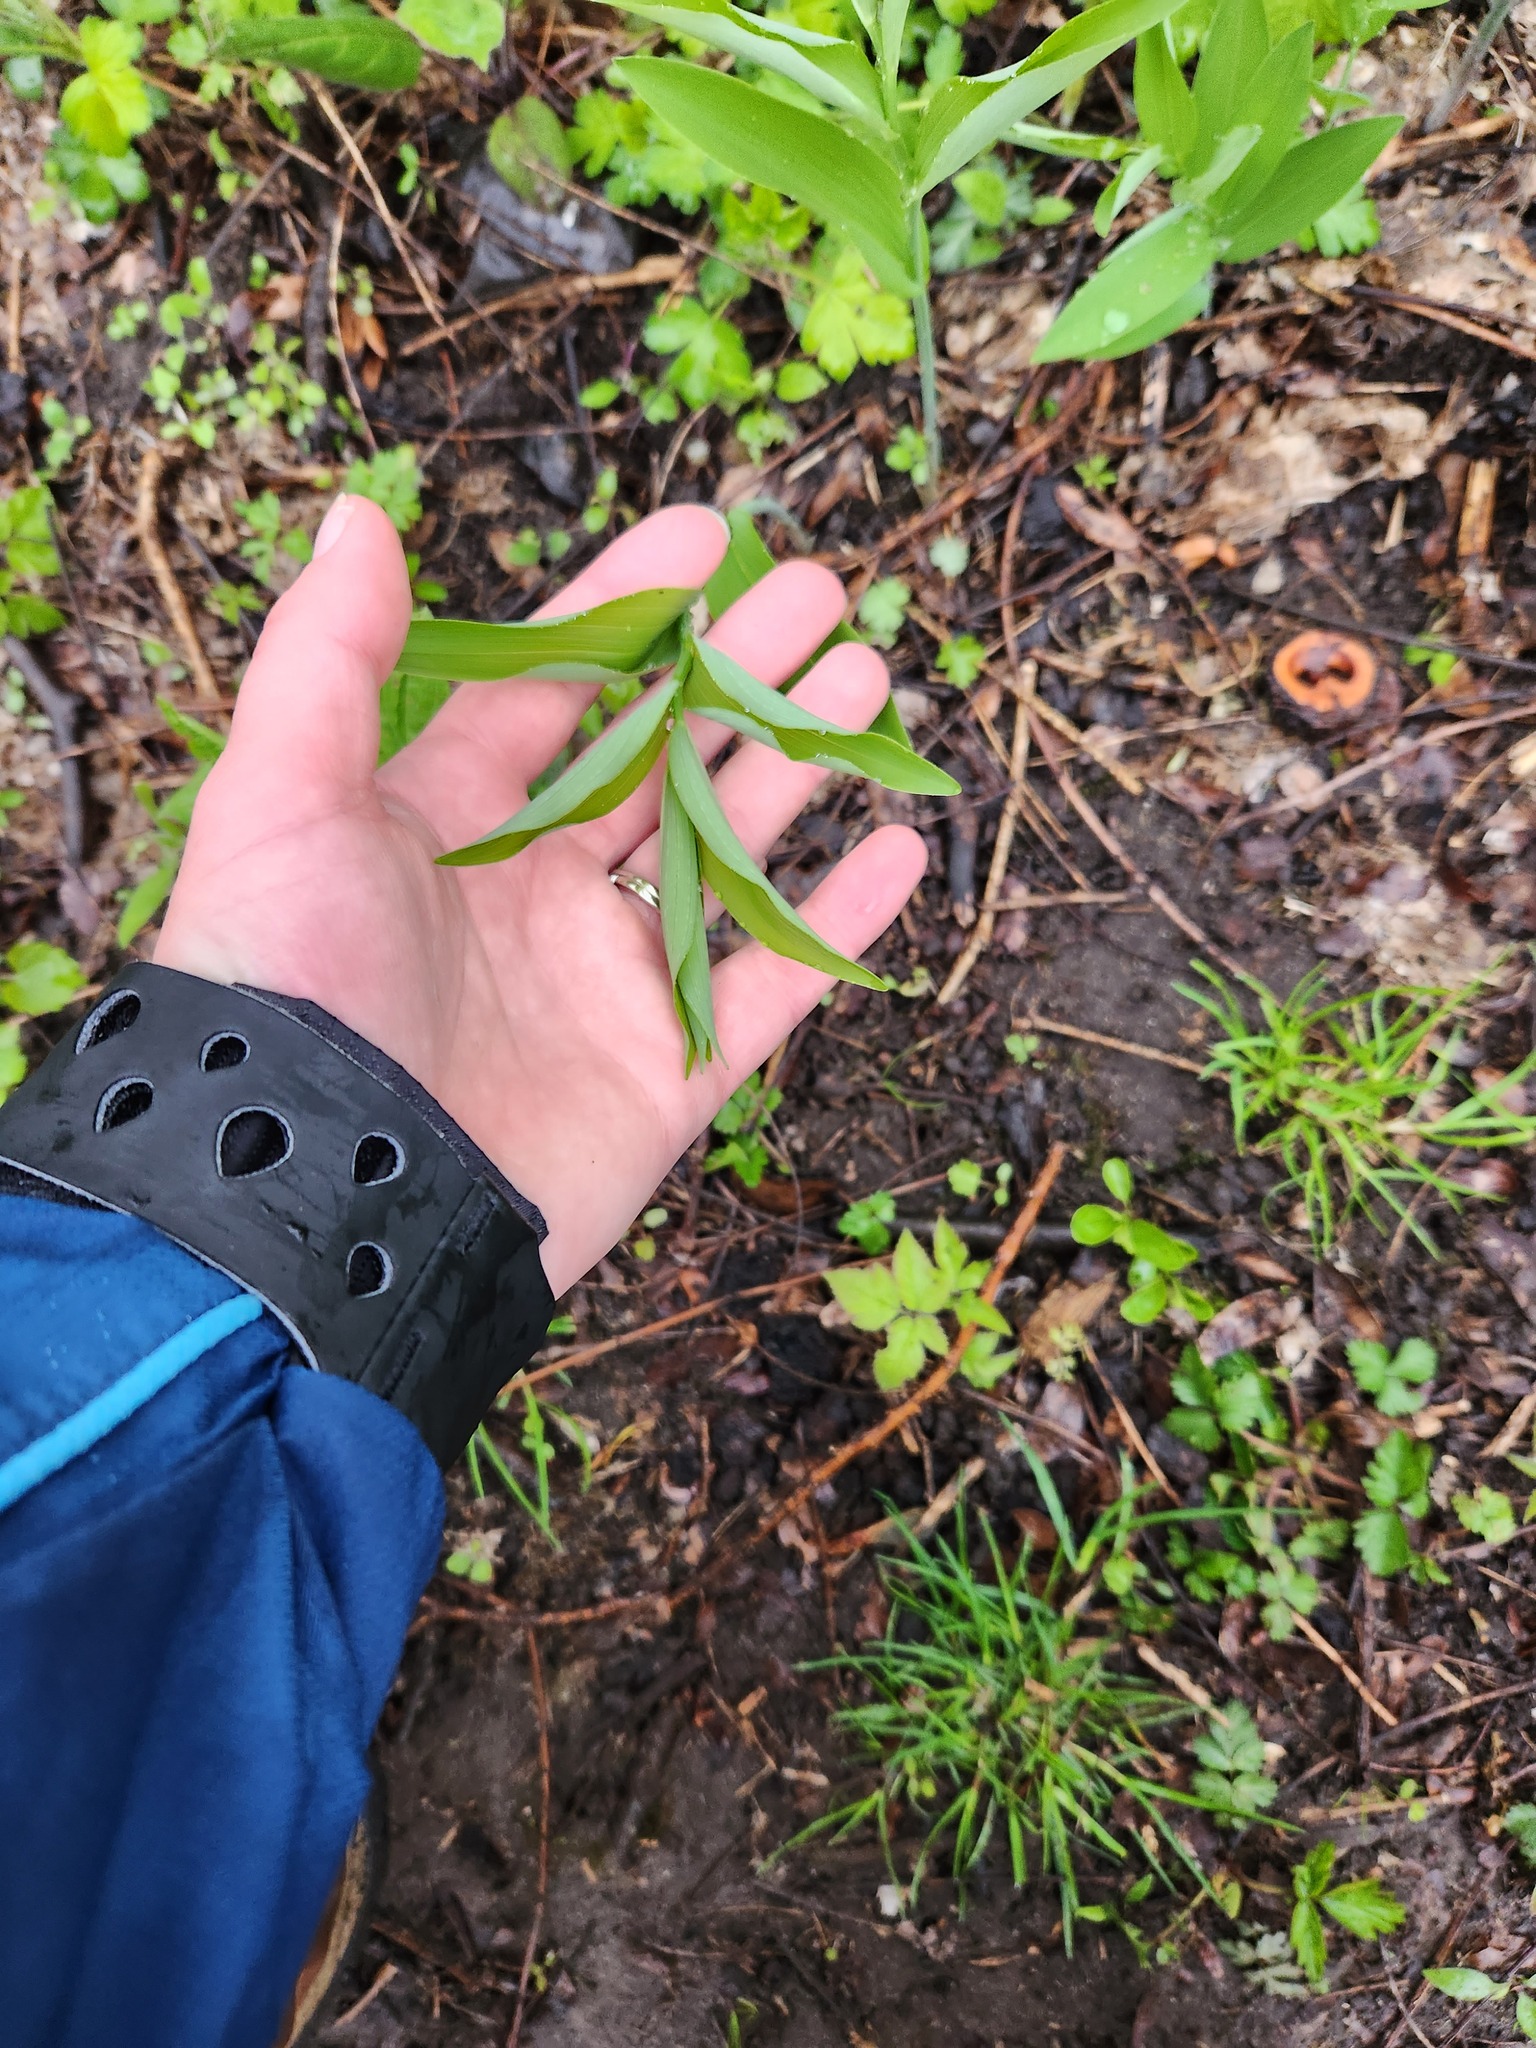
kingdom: Plantae
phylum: Tracheophyta
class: Liliopsida
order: Asparagales
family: Asparagaceae
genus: Polygonatum
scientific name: Polygonatum biflorum
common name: American solomon's-seal
